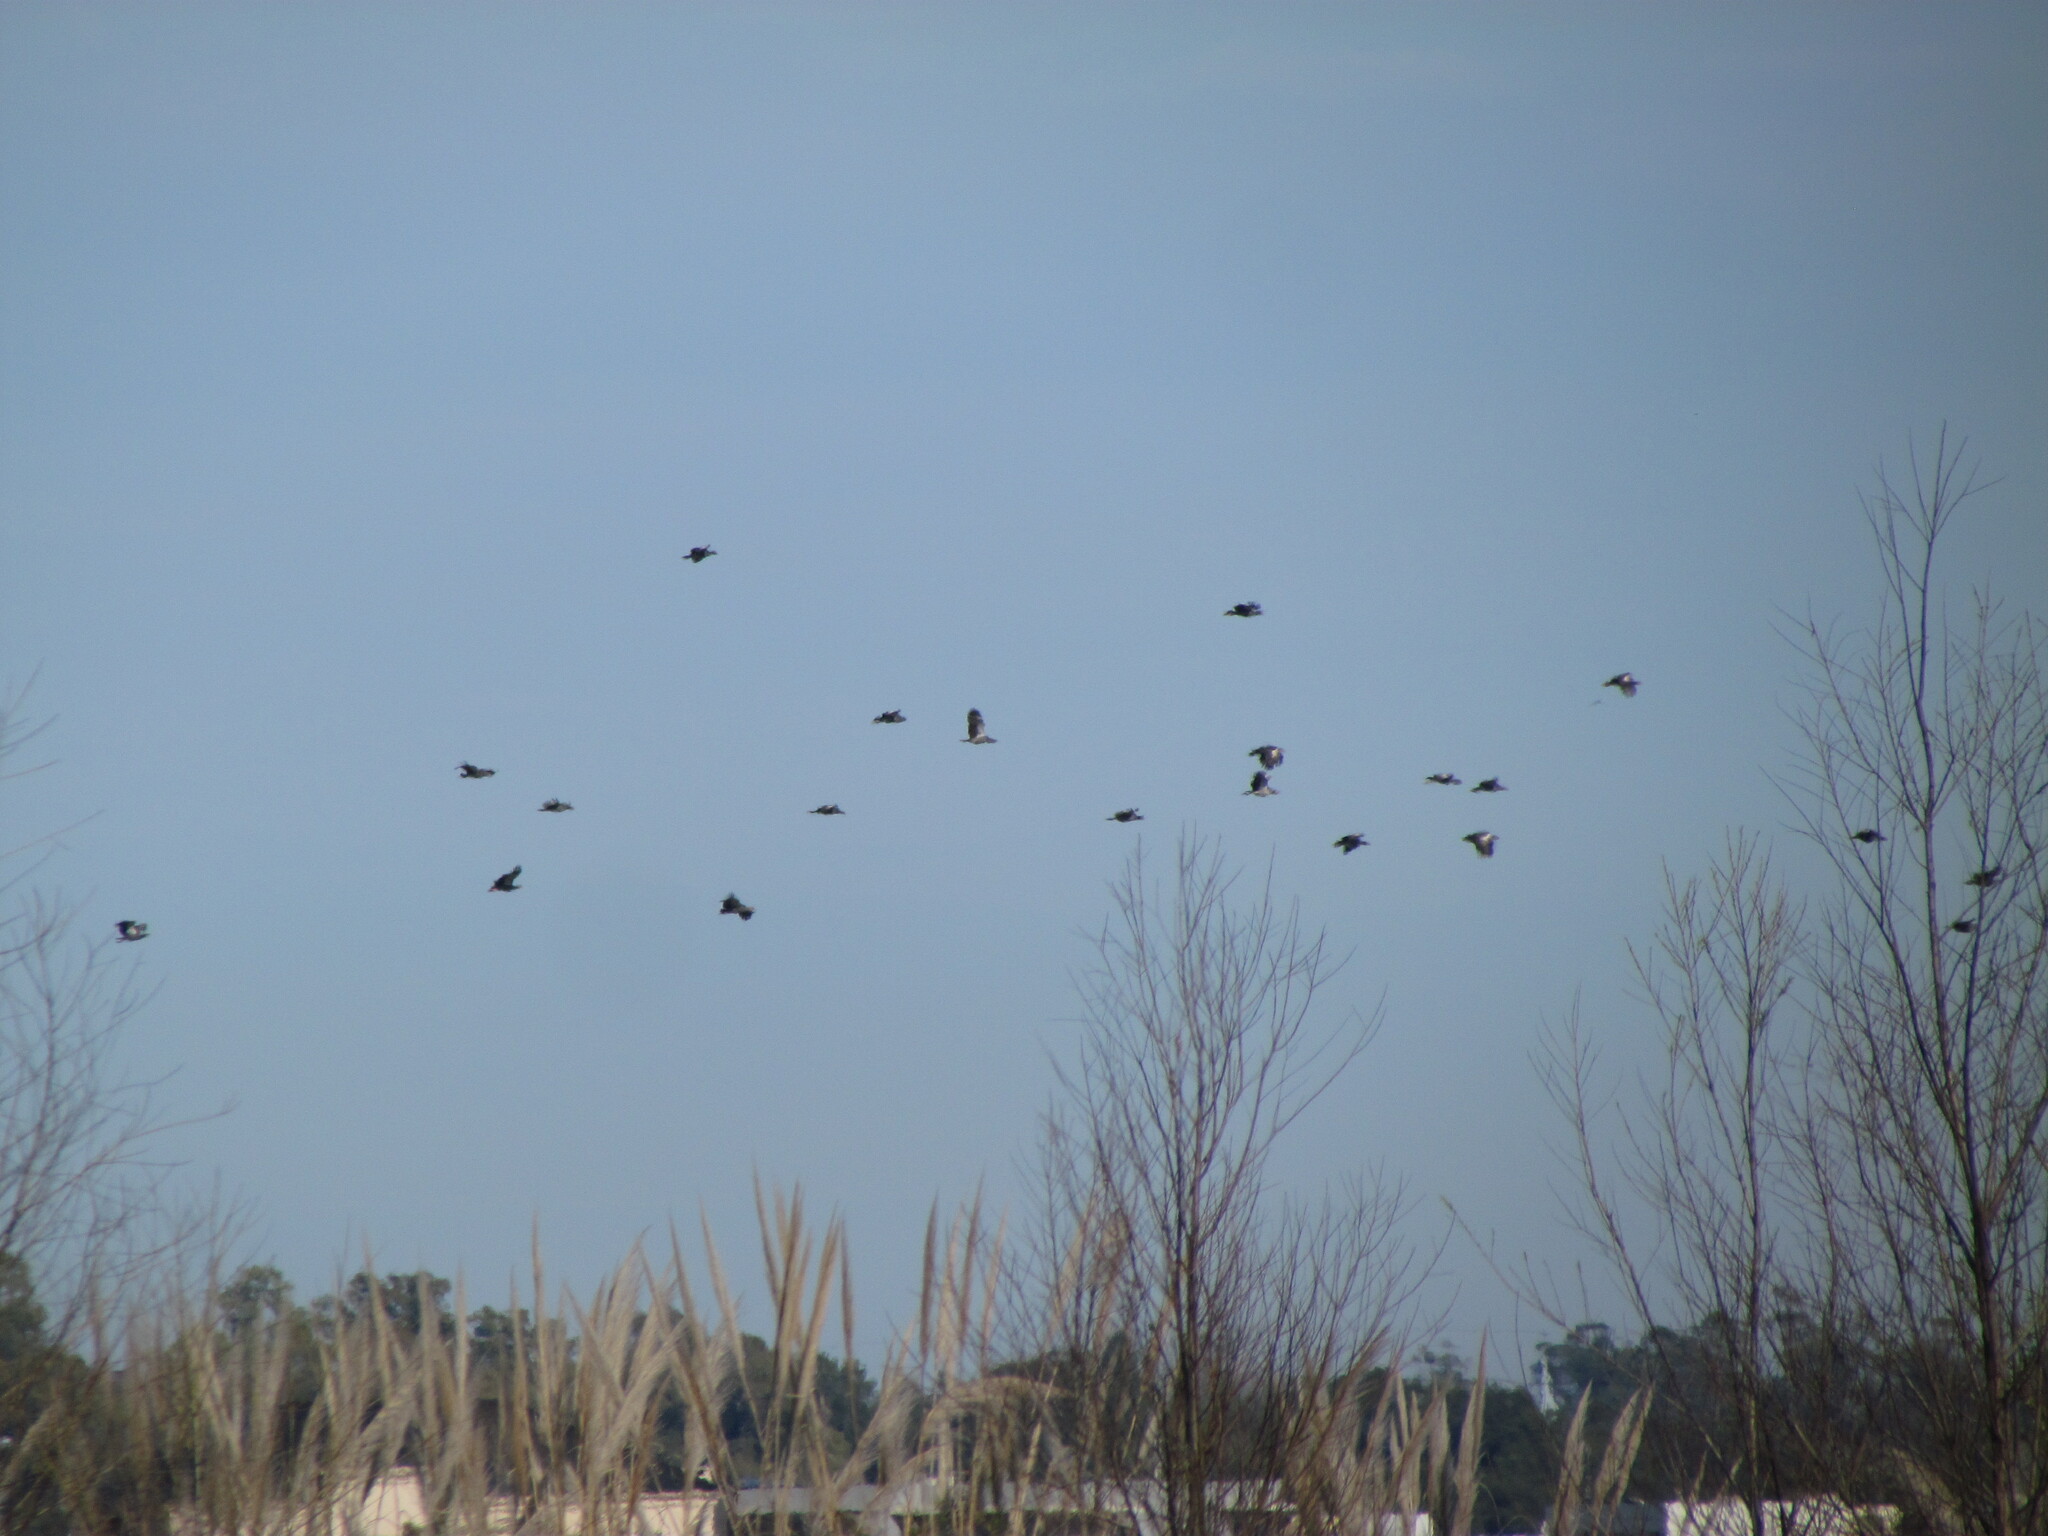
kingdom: Animalia
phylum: Chordata
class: Aves
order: Anseriformes
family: Anhimidae
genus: Chauna
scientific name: Chauna torquata
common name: Southern screamer
